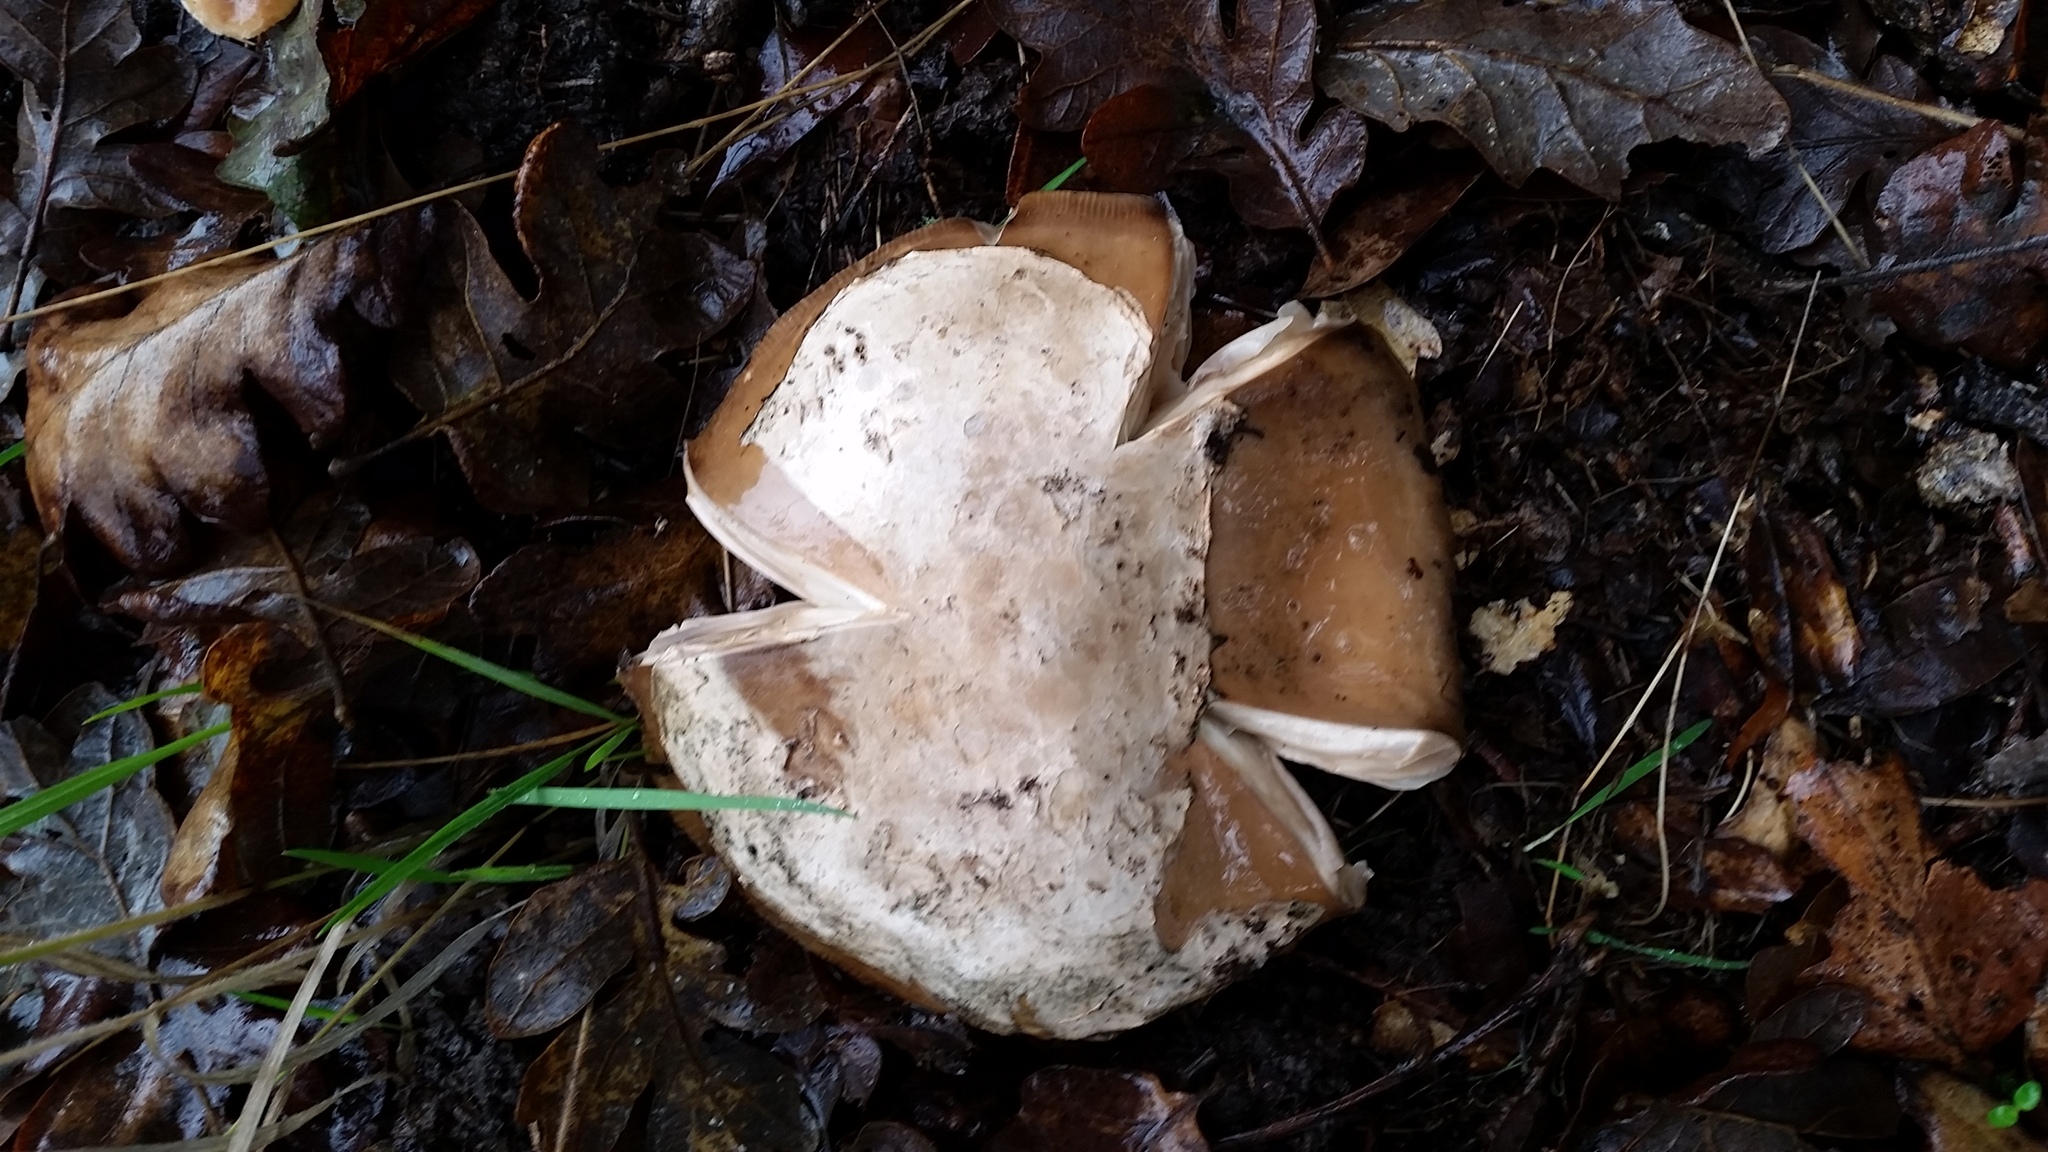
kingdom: Fungi
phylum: Basidiomycota
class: Agaricomycetes
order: Agaricales
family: Amanitaceae
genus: Amanita
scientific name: Amanita calyptroderma
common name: Coccora
